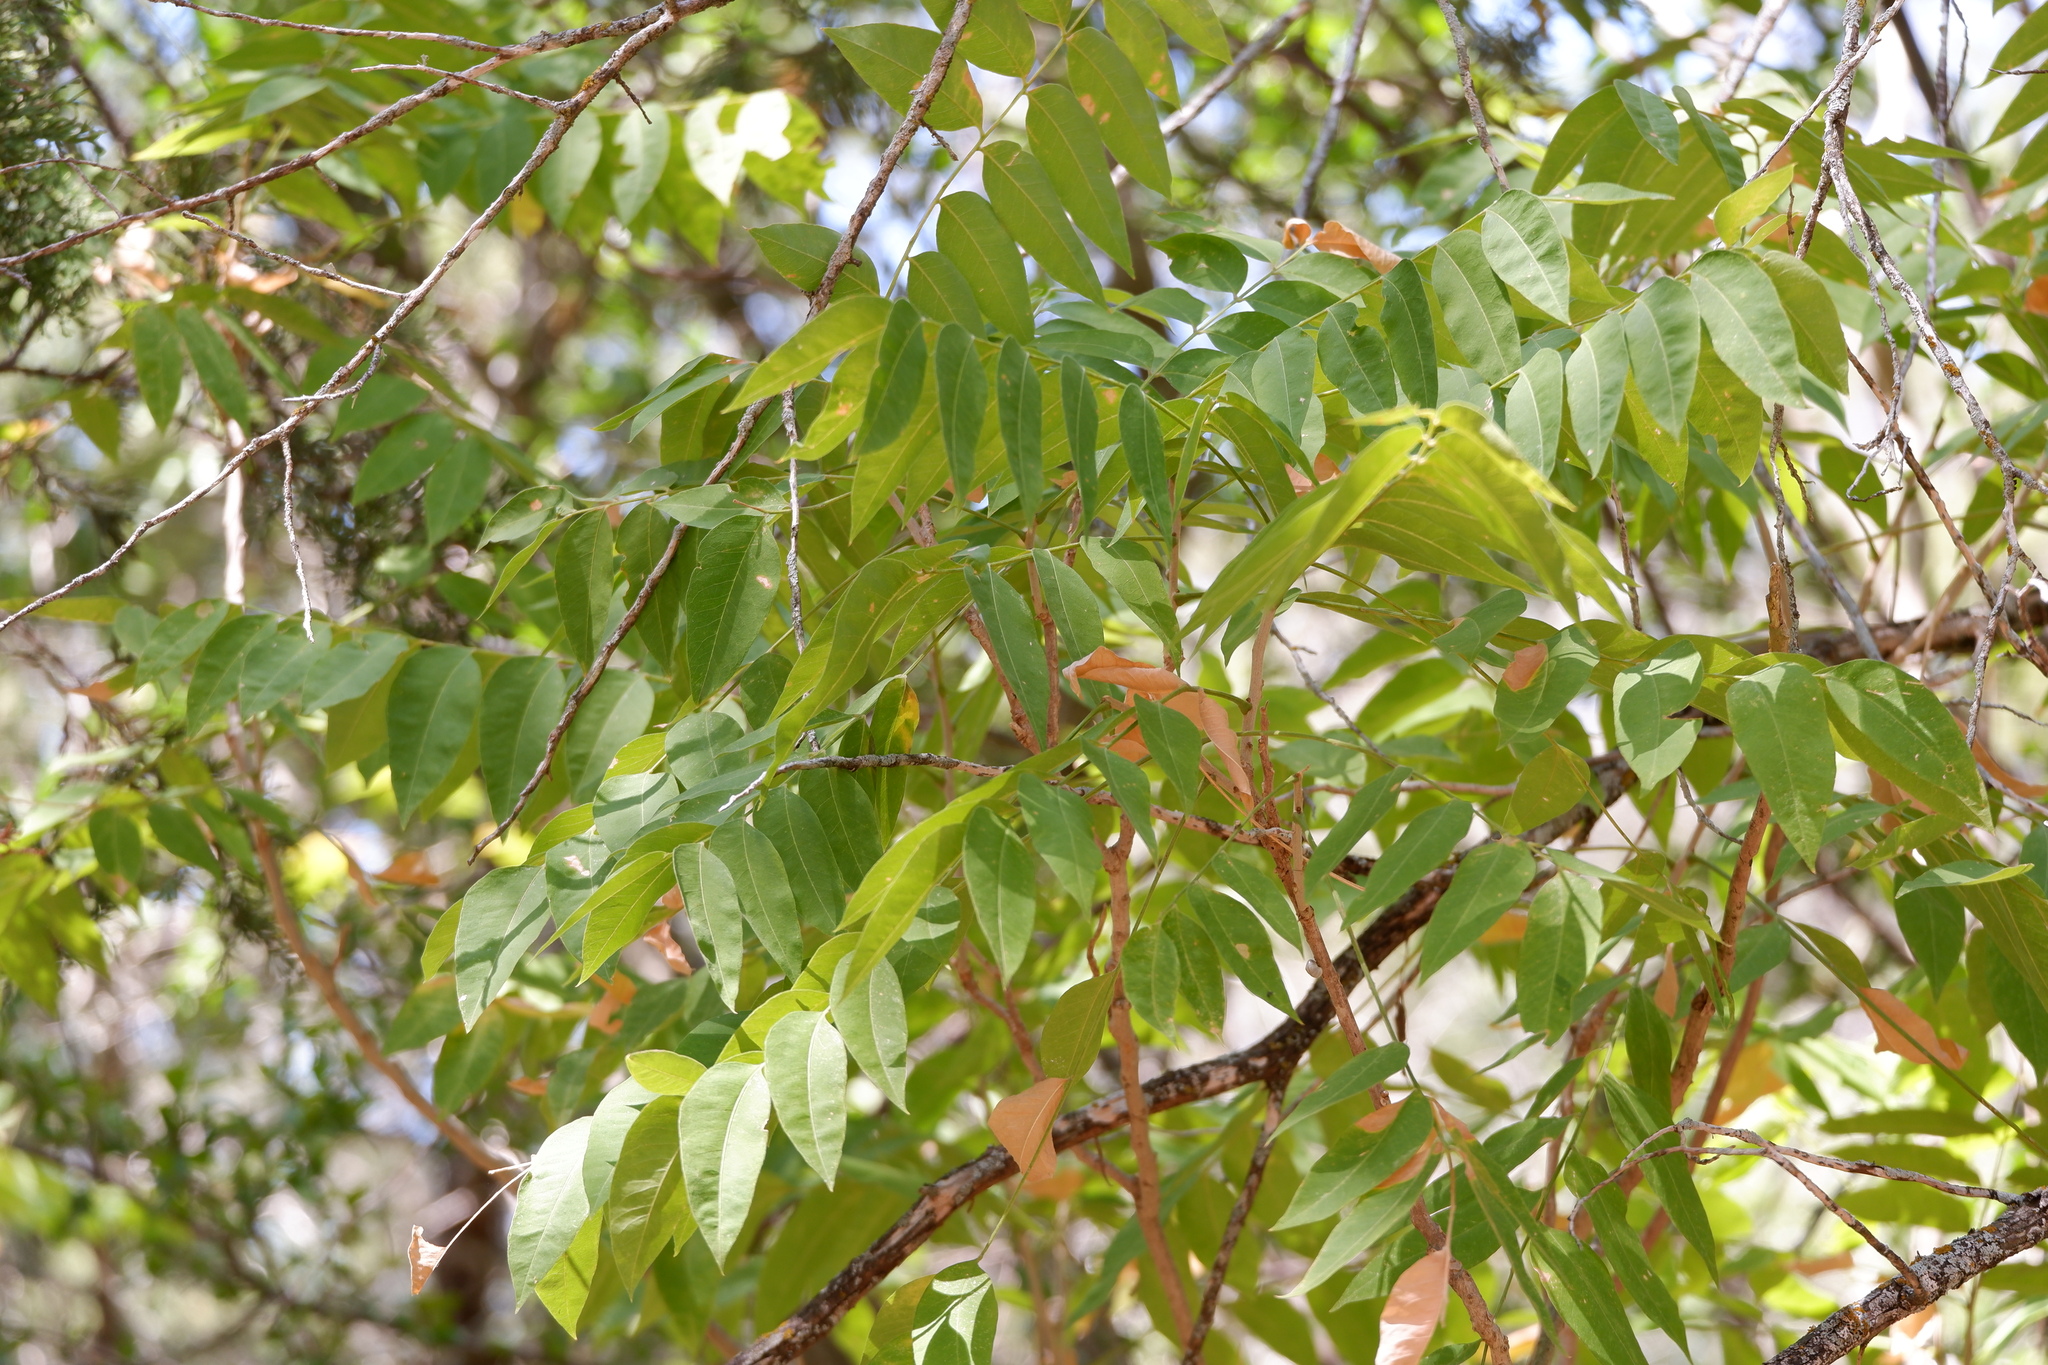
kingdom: Plantae
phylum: Tracheophyta
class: Magnoliopsida
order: Sapindales
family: Sapindaceae
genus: Sapindus
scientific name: Sapindus drummondii
